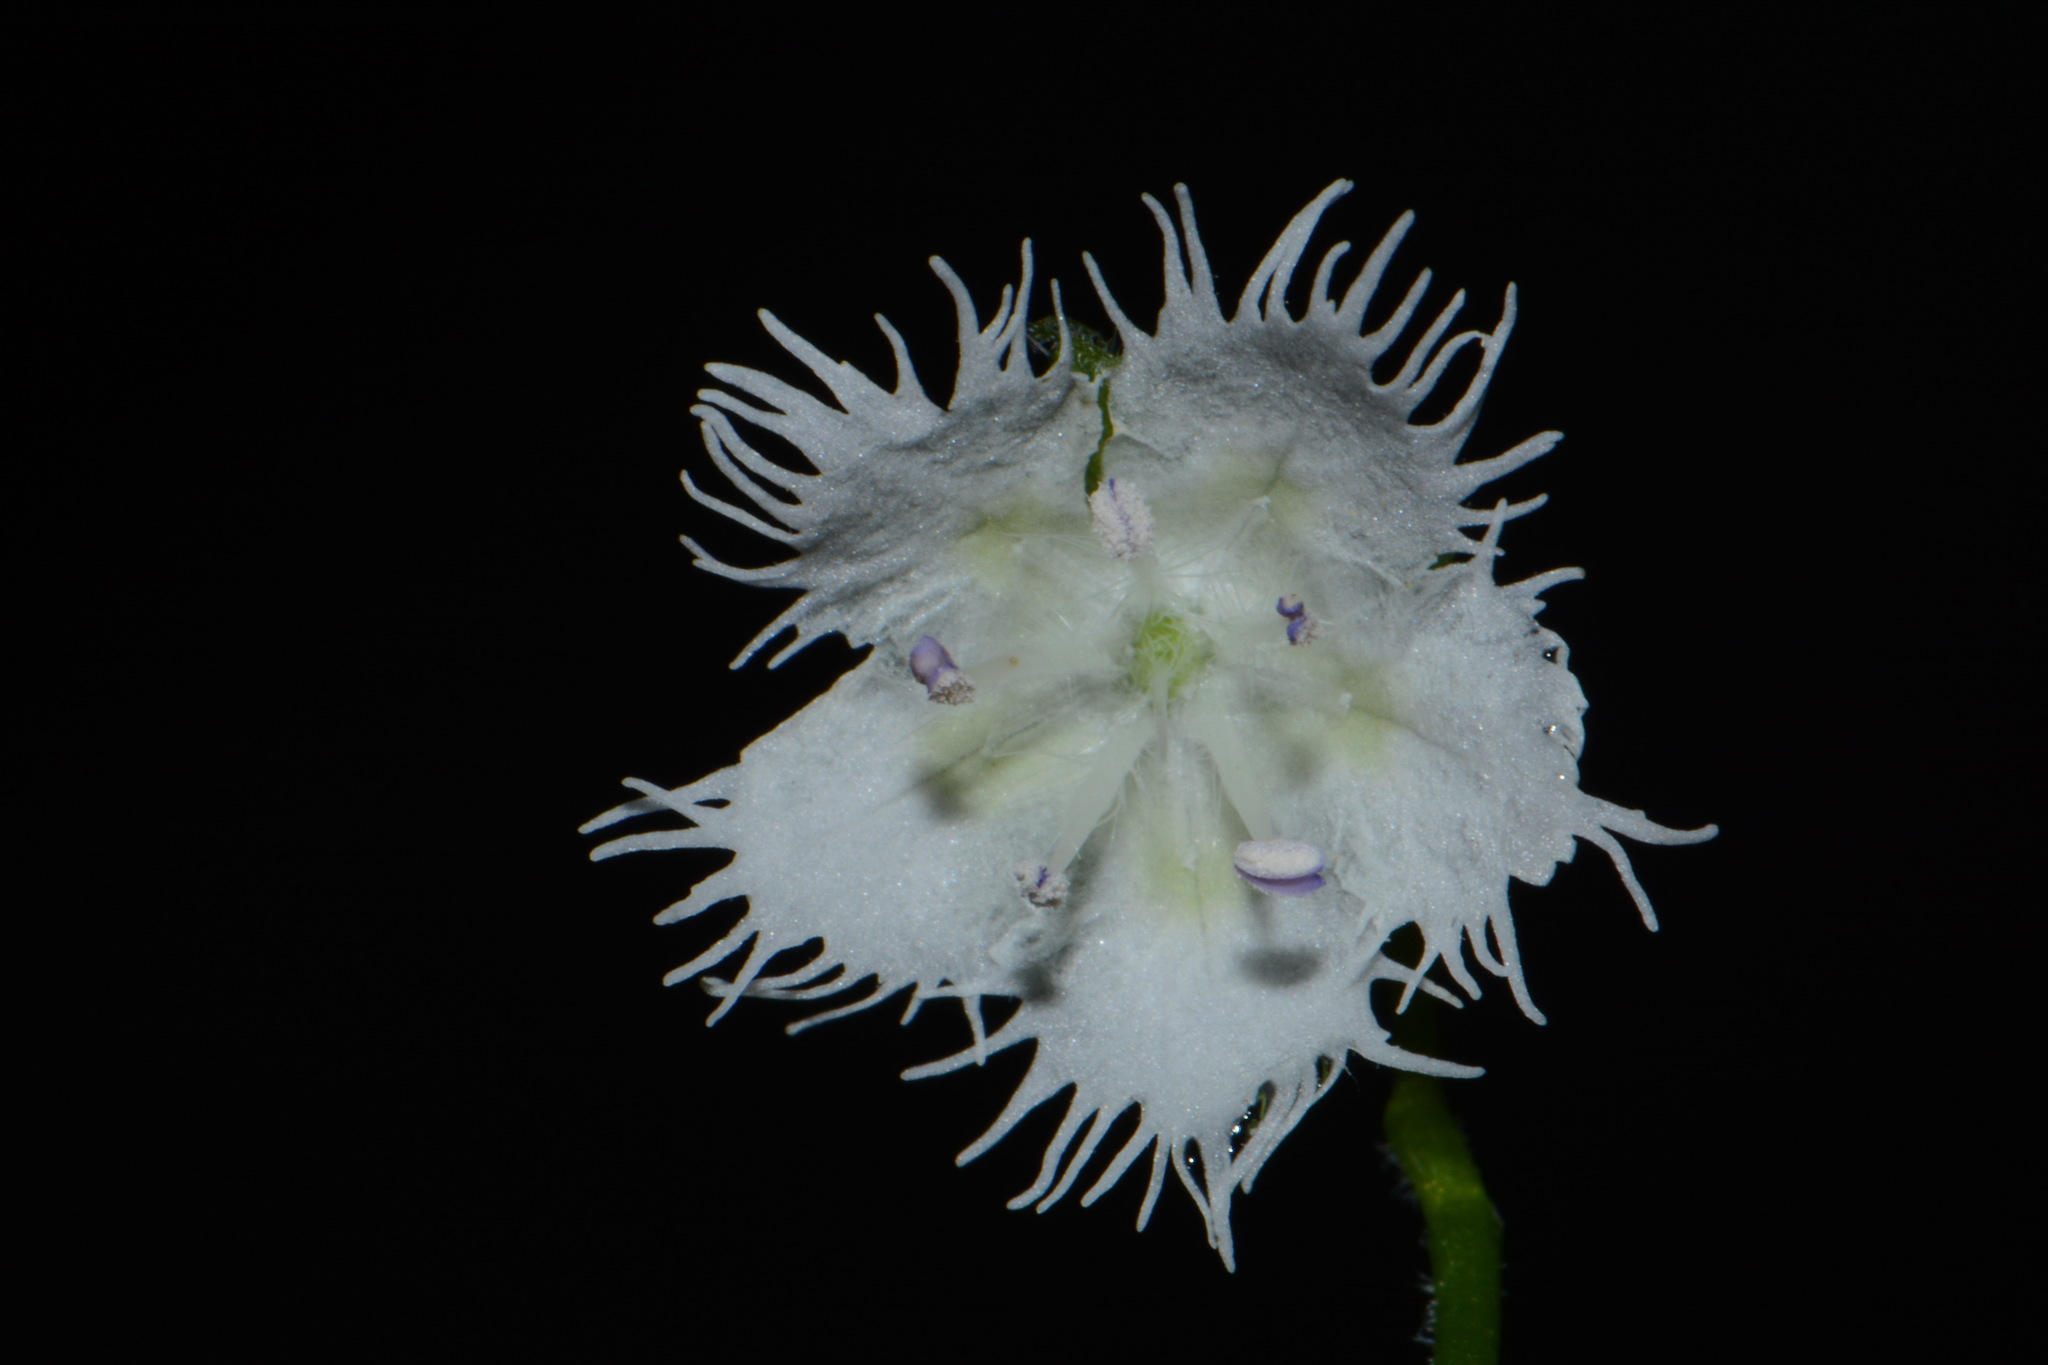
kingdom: Plantae
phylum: Tracheophyta
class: Magnoliopsida
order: Boraginales
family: Hydrophyllaceae
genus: Phacelia
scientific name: Phacelia fimbriata
